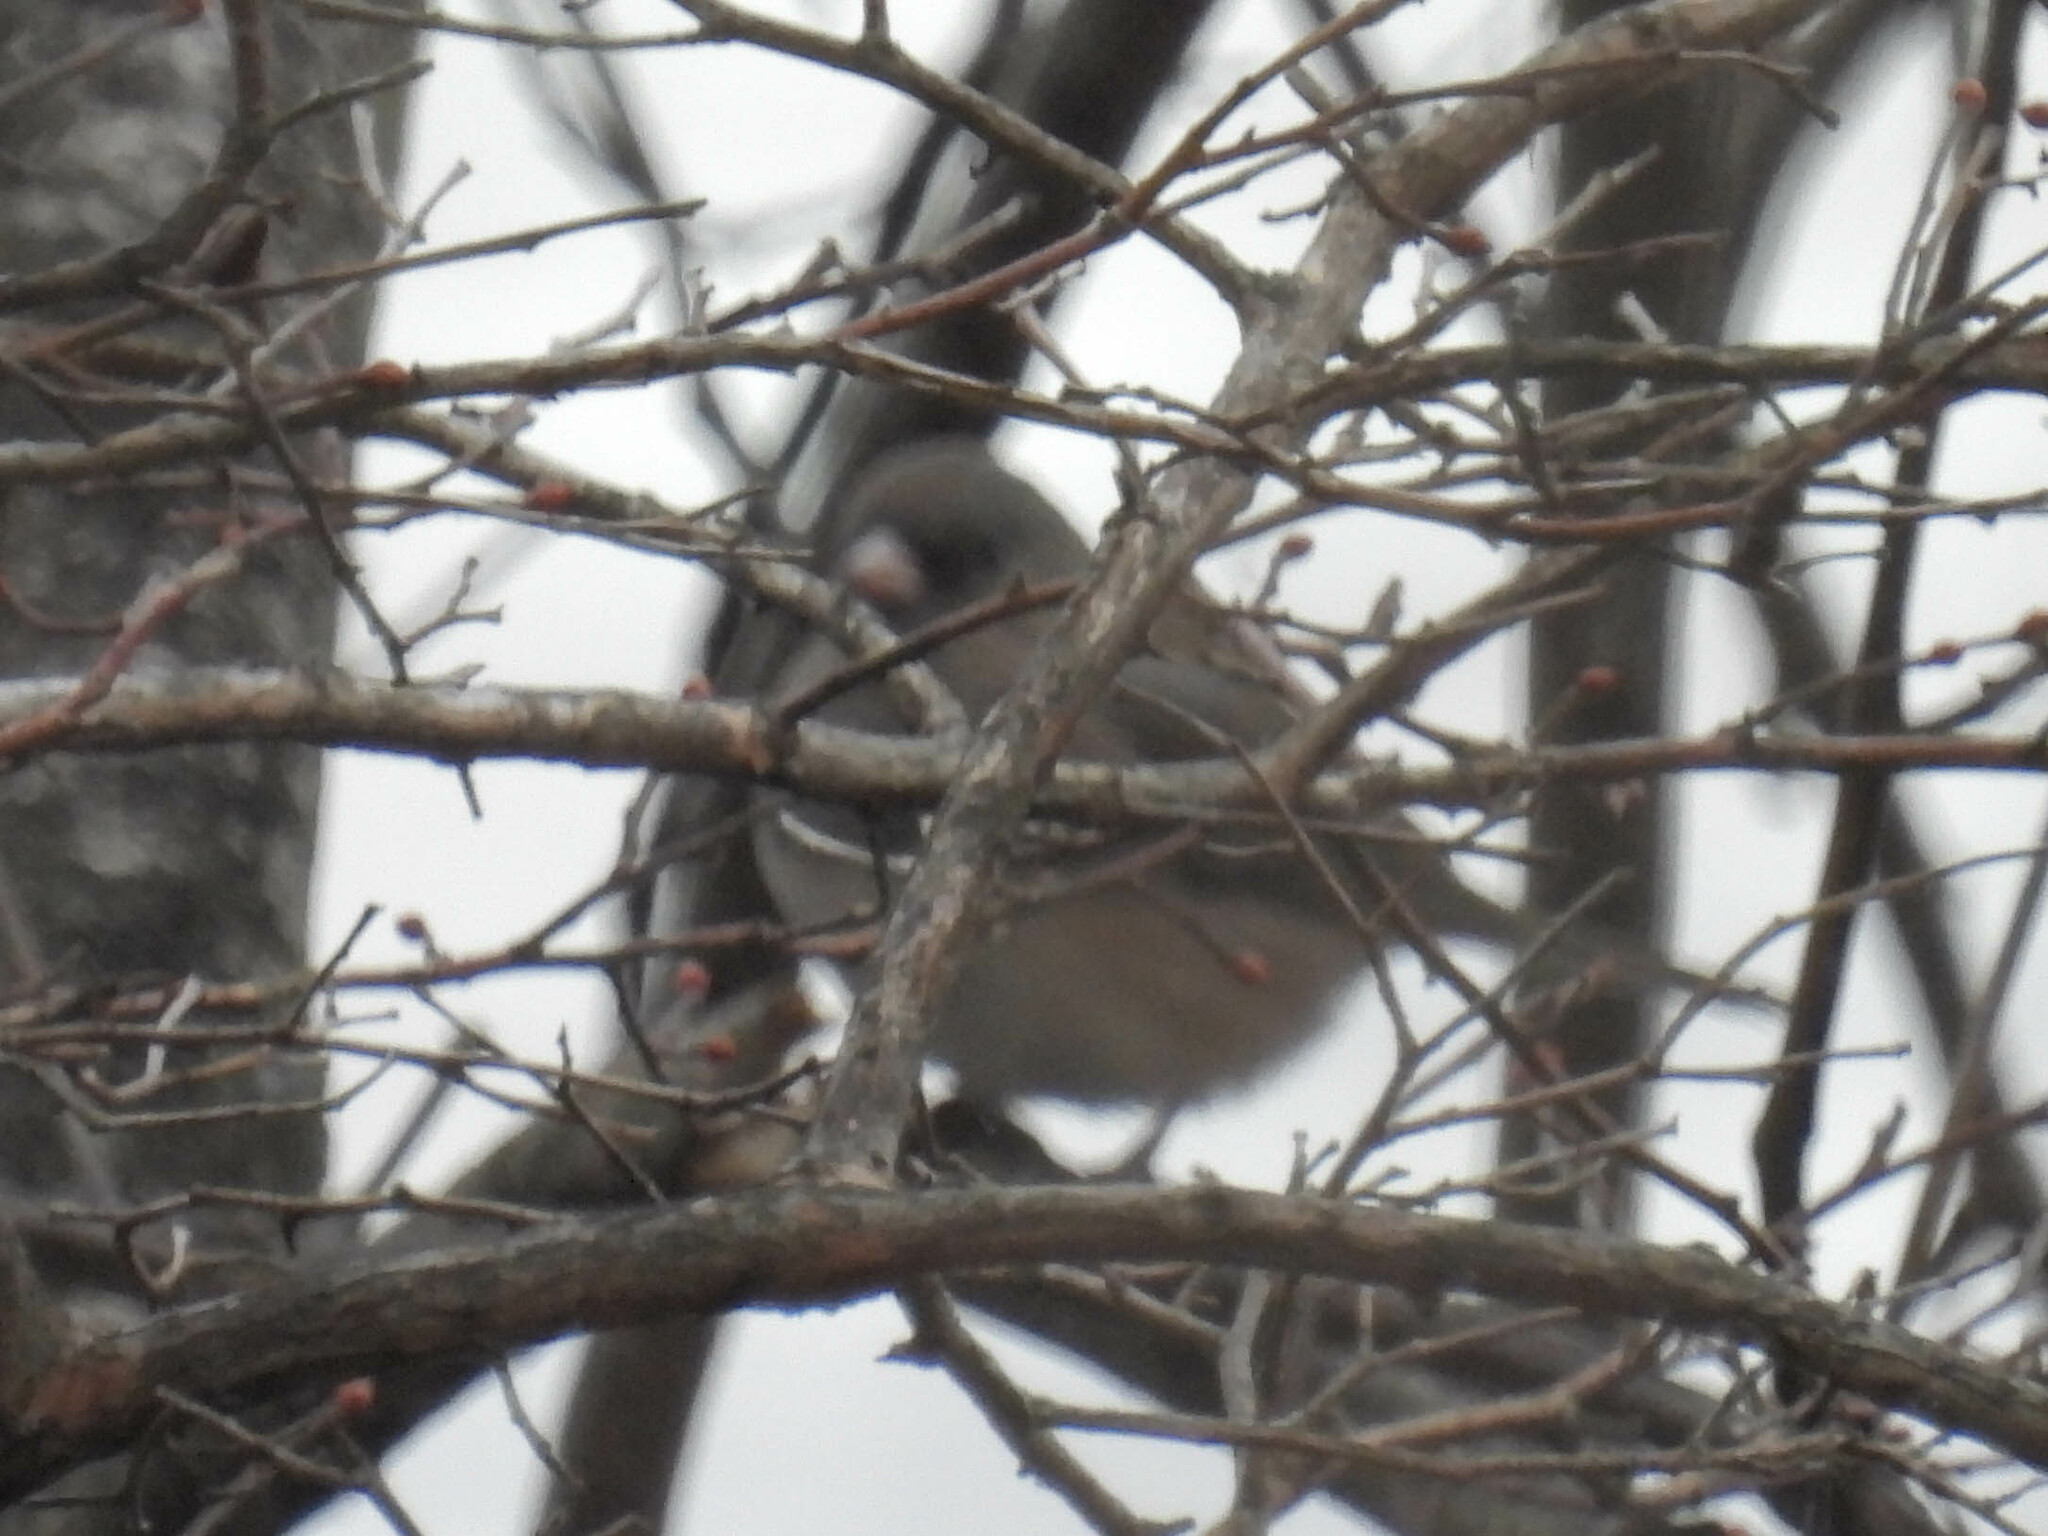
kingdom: Animalia
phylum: Chordata
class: Aves
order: Passeriformes
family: Passerellidae
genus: Junco
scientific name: Junco hyemalis
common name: Dark-eyed junco
